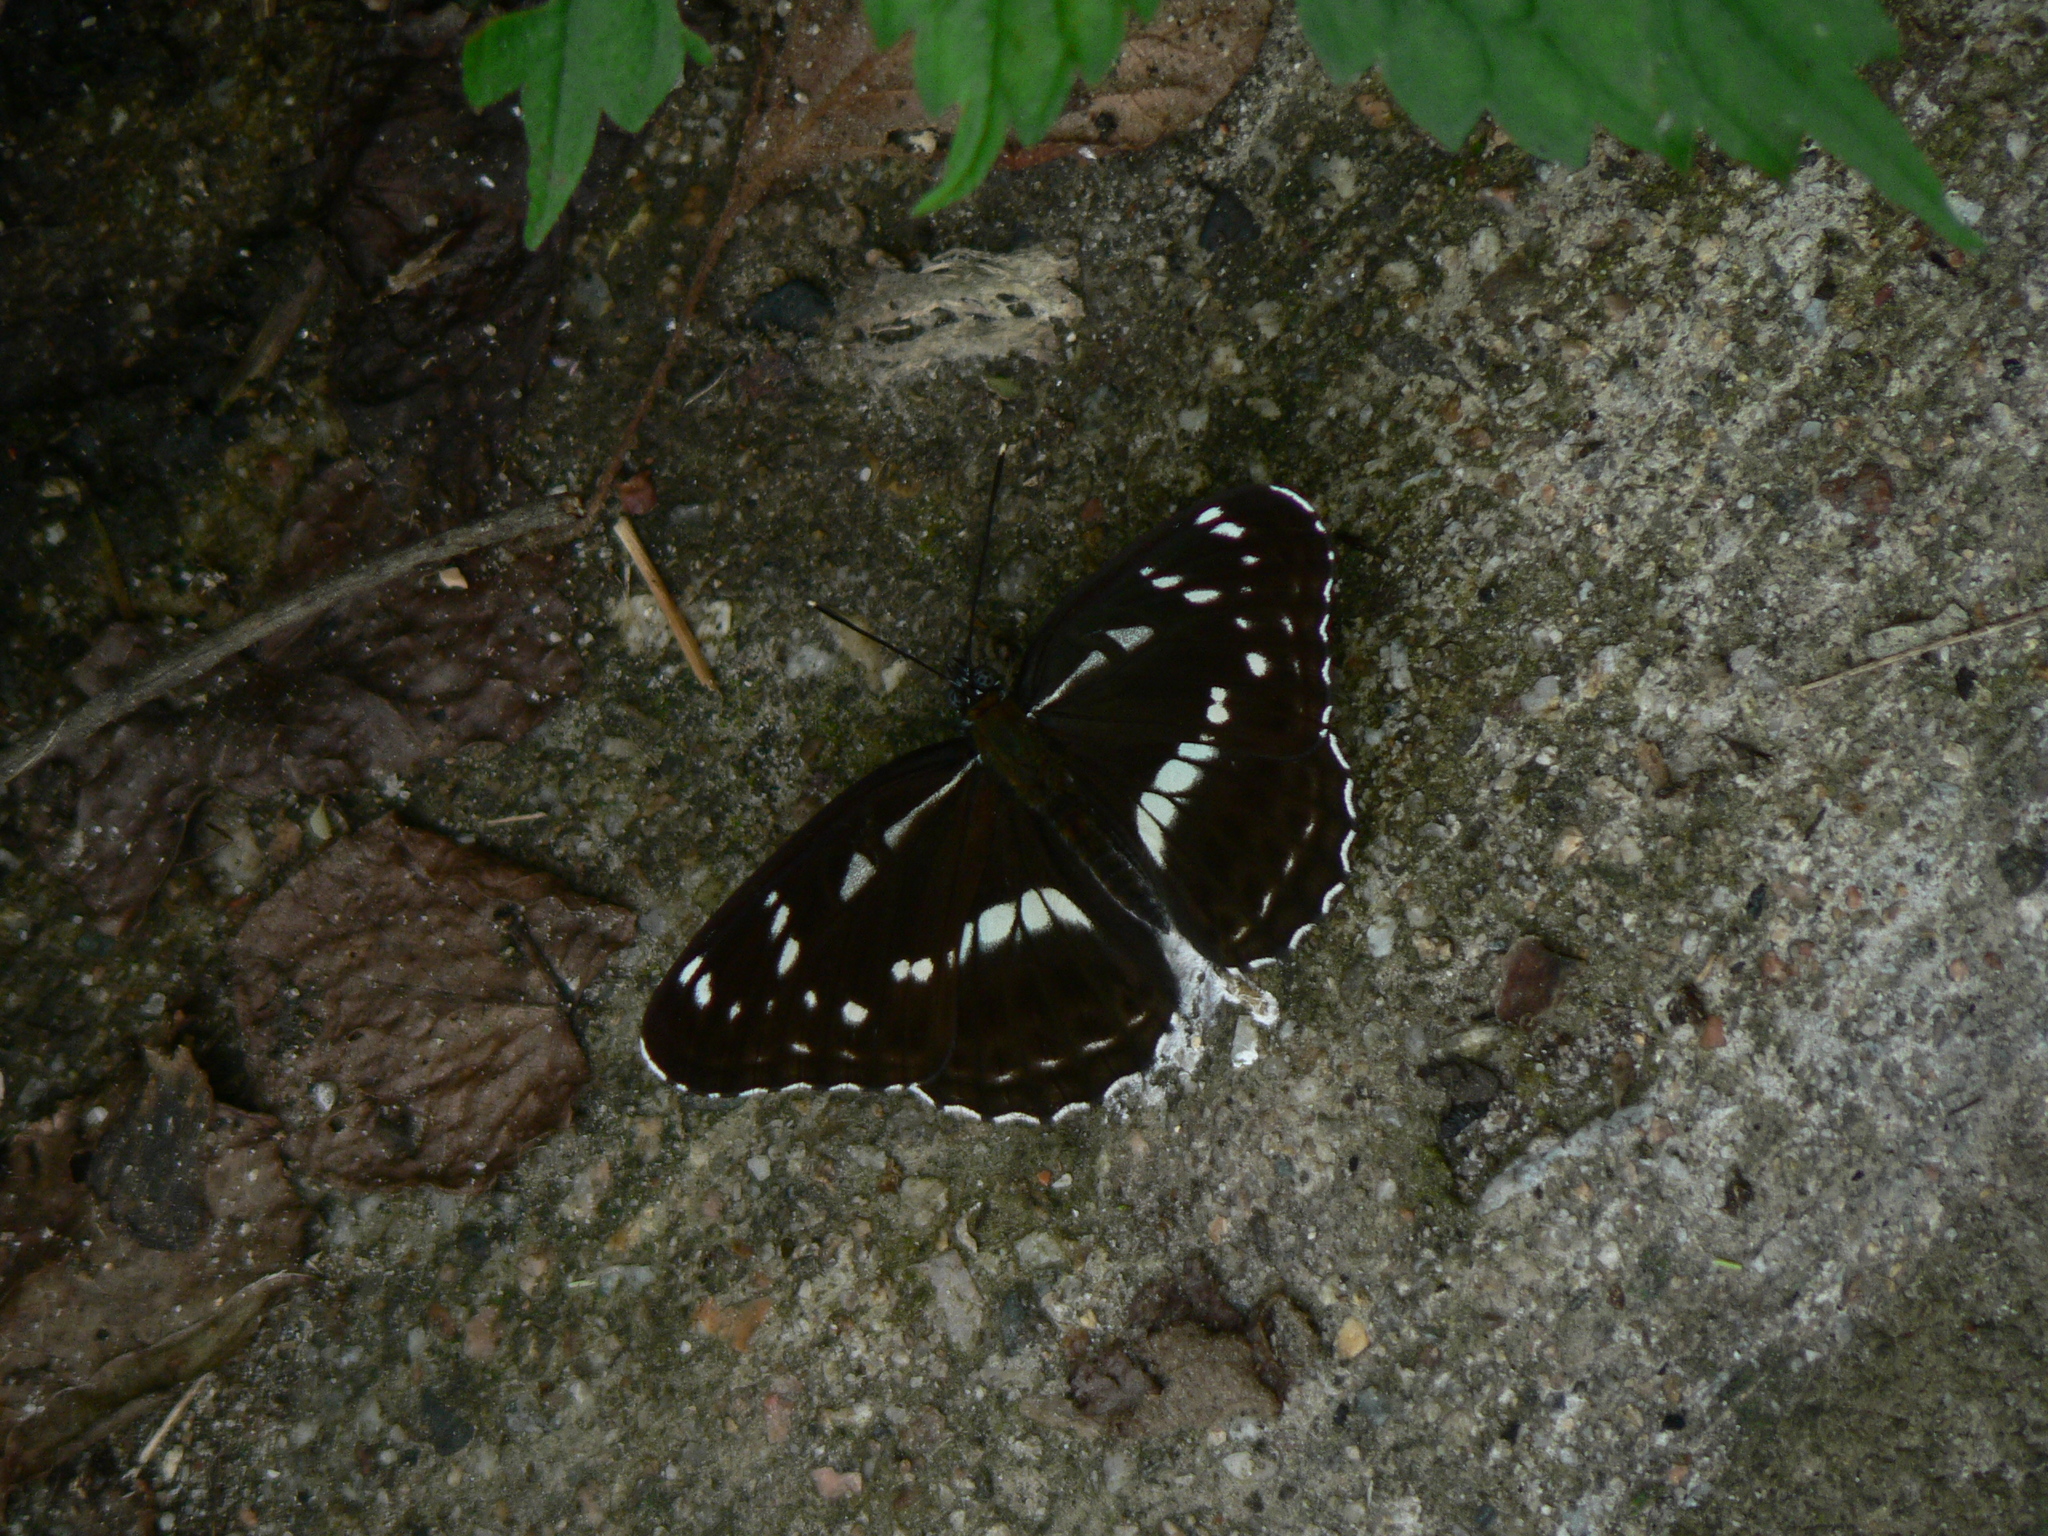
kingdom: Animalia
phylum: Arthropoda
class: Insecta
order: Lepidoptera
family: Nymphalidae
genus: Limenitis
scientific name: Limenitis helmanni
